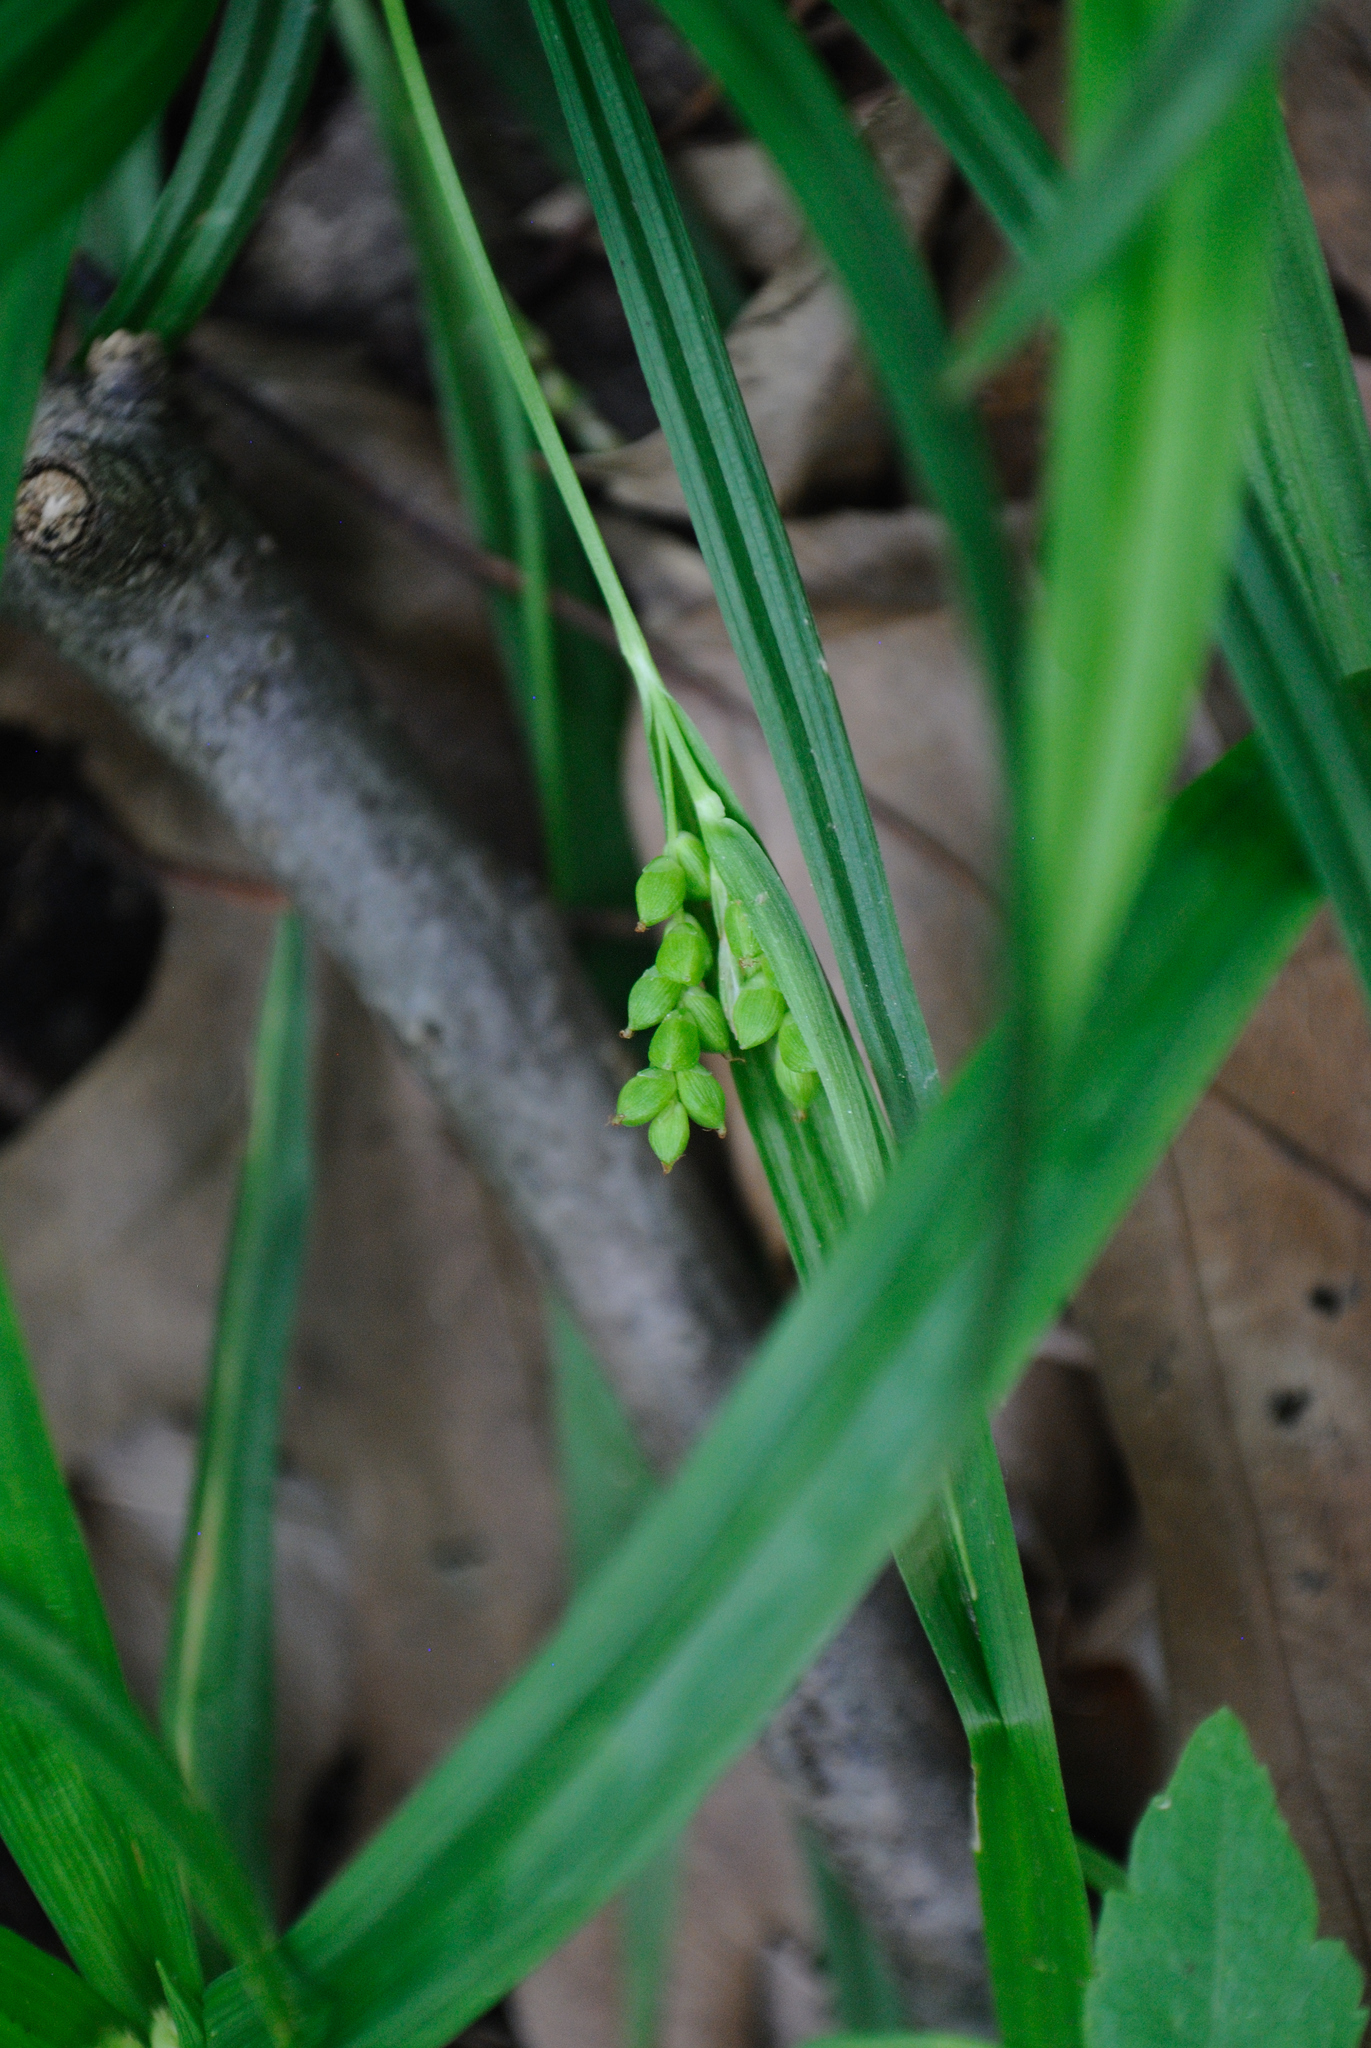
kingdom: Plantae
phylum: Tracheophyta
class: Liliopsida
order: Poales
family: Cyperaceae
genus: Carex
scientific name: Carex abscondita
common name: Thicket sedge
